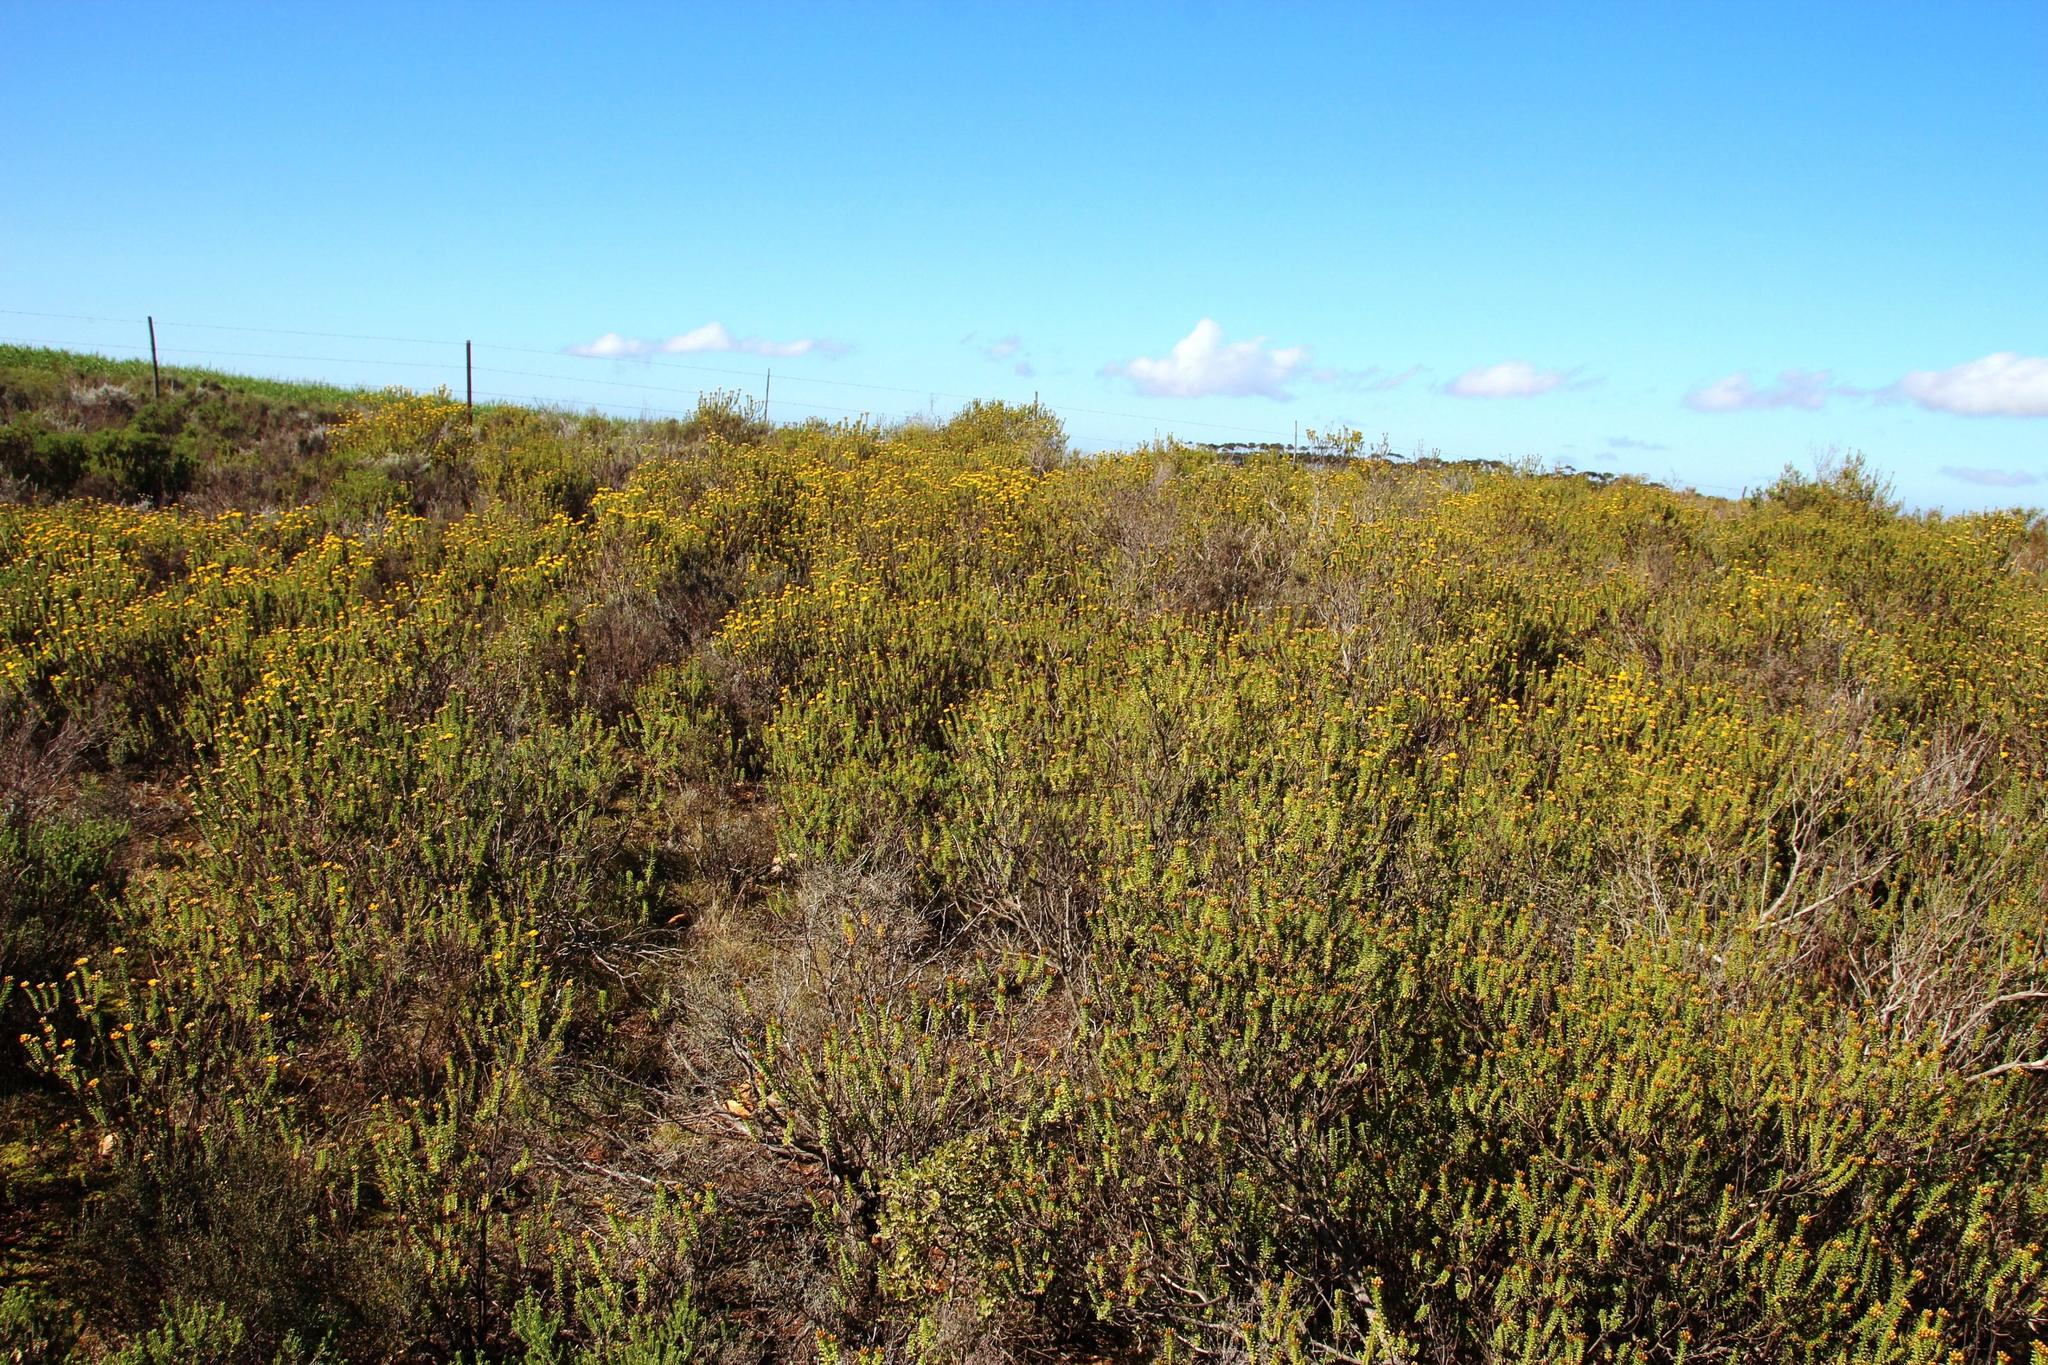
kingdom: Plantae
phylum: Tracheophyta
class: Magnoliopsida
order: Asterales
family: Asteraceae
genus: Oedera
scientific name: Oedera squarrosa
